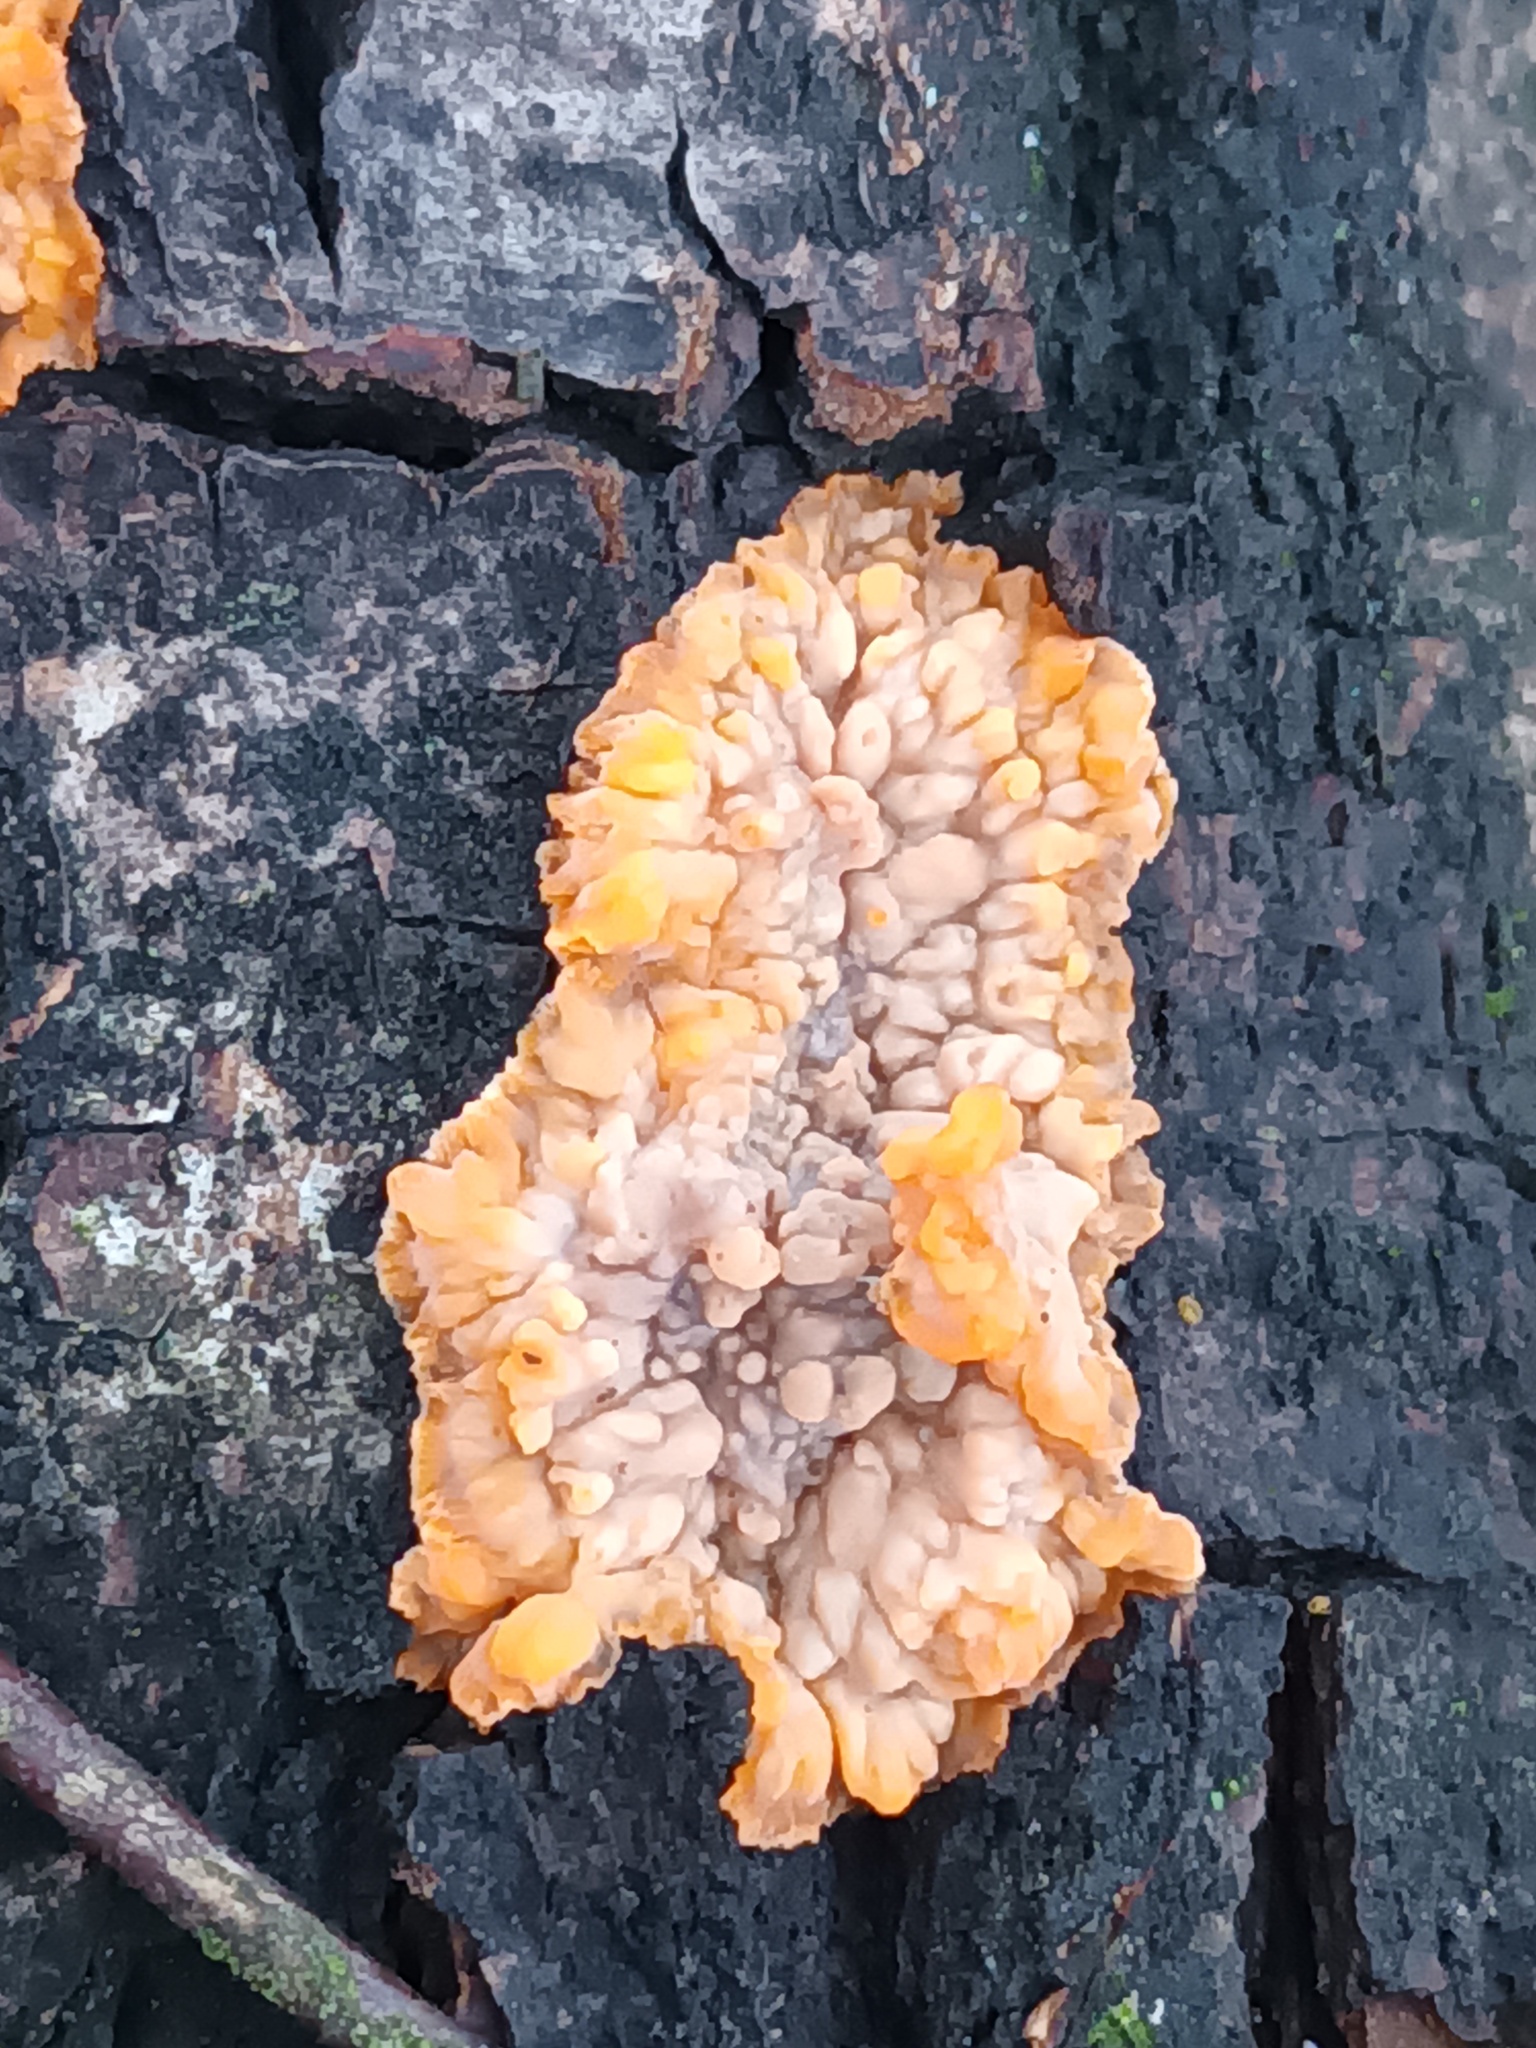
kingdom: Fungi
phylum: Basidiomycota
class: Agaricomycetes
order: Polyporales
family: Meruliaceae
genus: Phlebia
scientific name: Phlebia radiata
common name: Wrinkled crust
